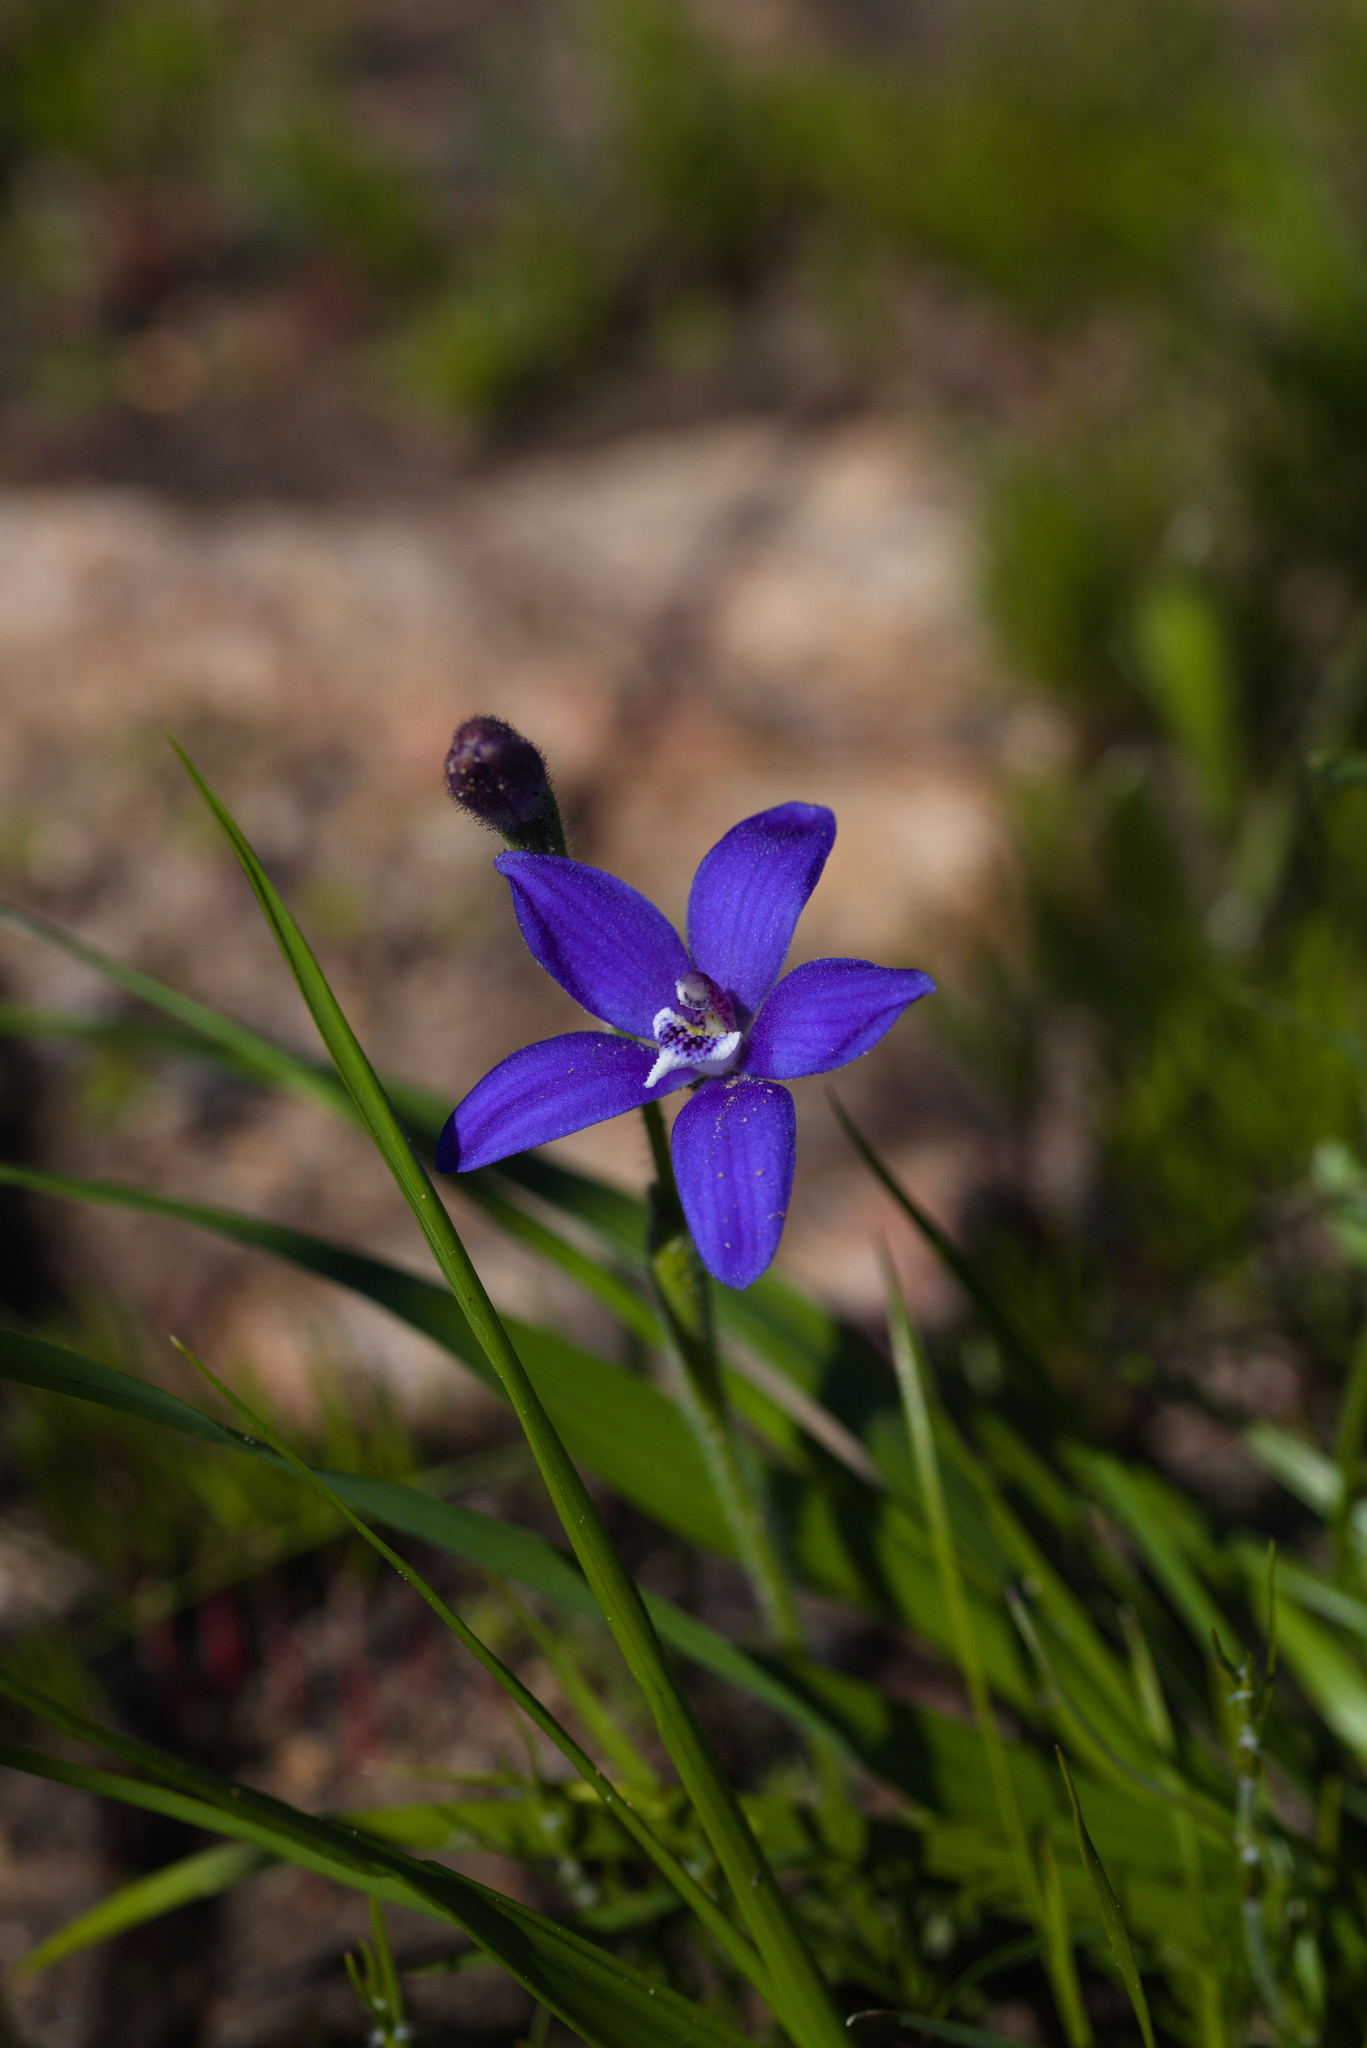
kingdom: Plantae
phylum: Tracheophyta
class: Liliopsida
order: Asparagales
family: Orchidaceae
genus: Caladenia
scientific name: Caladenia gemmata
